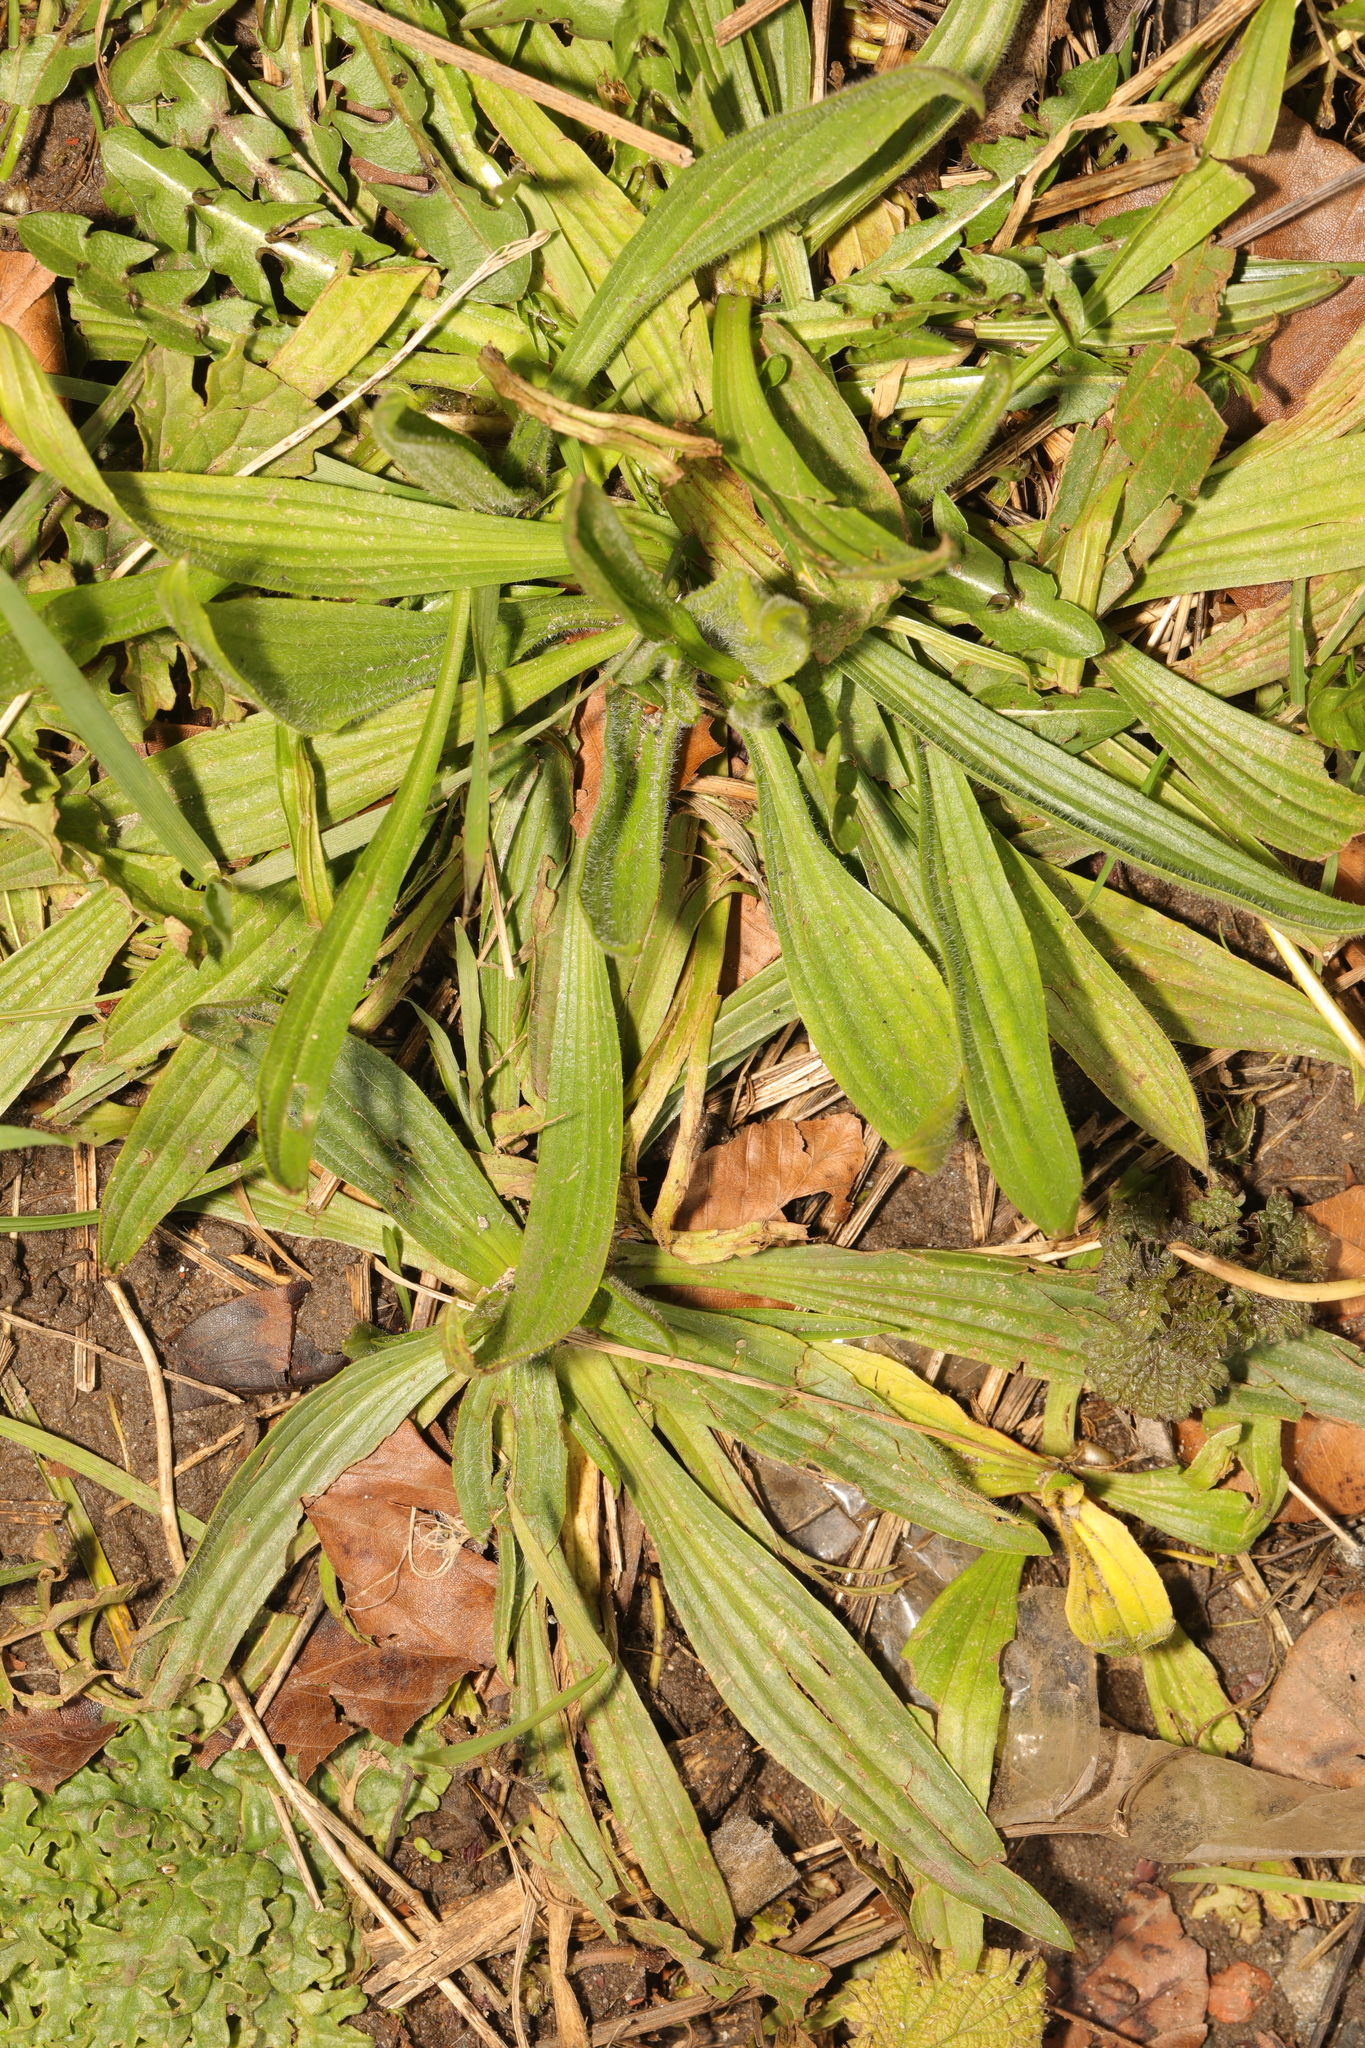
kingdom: Plantae
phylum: Tracheophyta
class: Magnoliopsida
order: Lamiales
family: Plantaginaceae
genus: Plantago
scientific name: Plantago lanceolata
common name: Ribwort plantain
